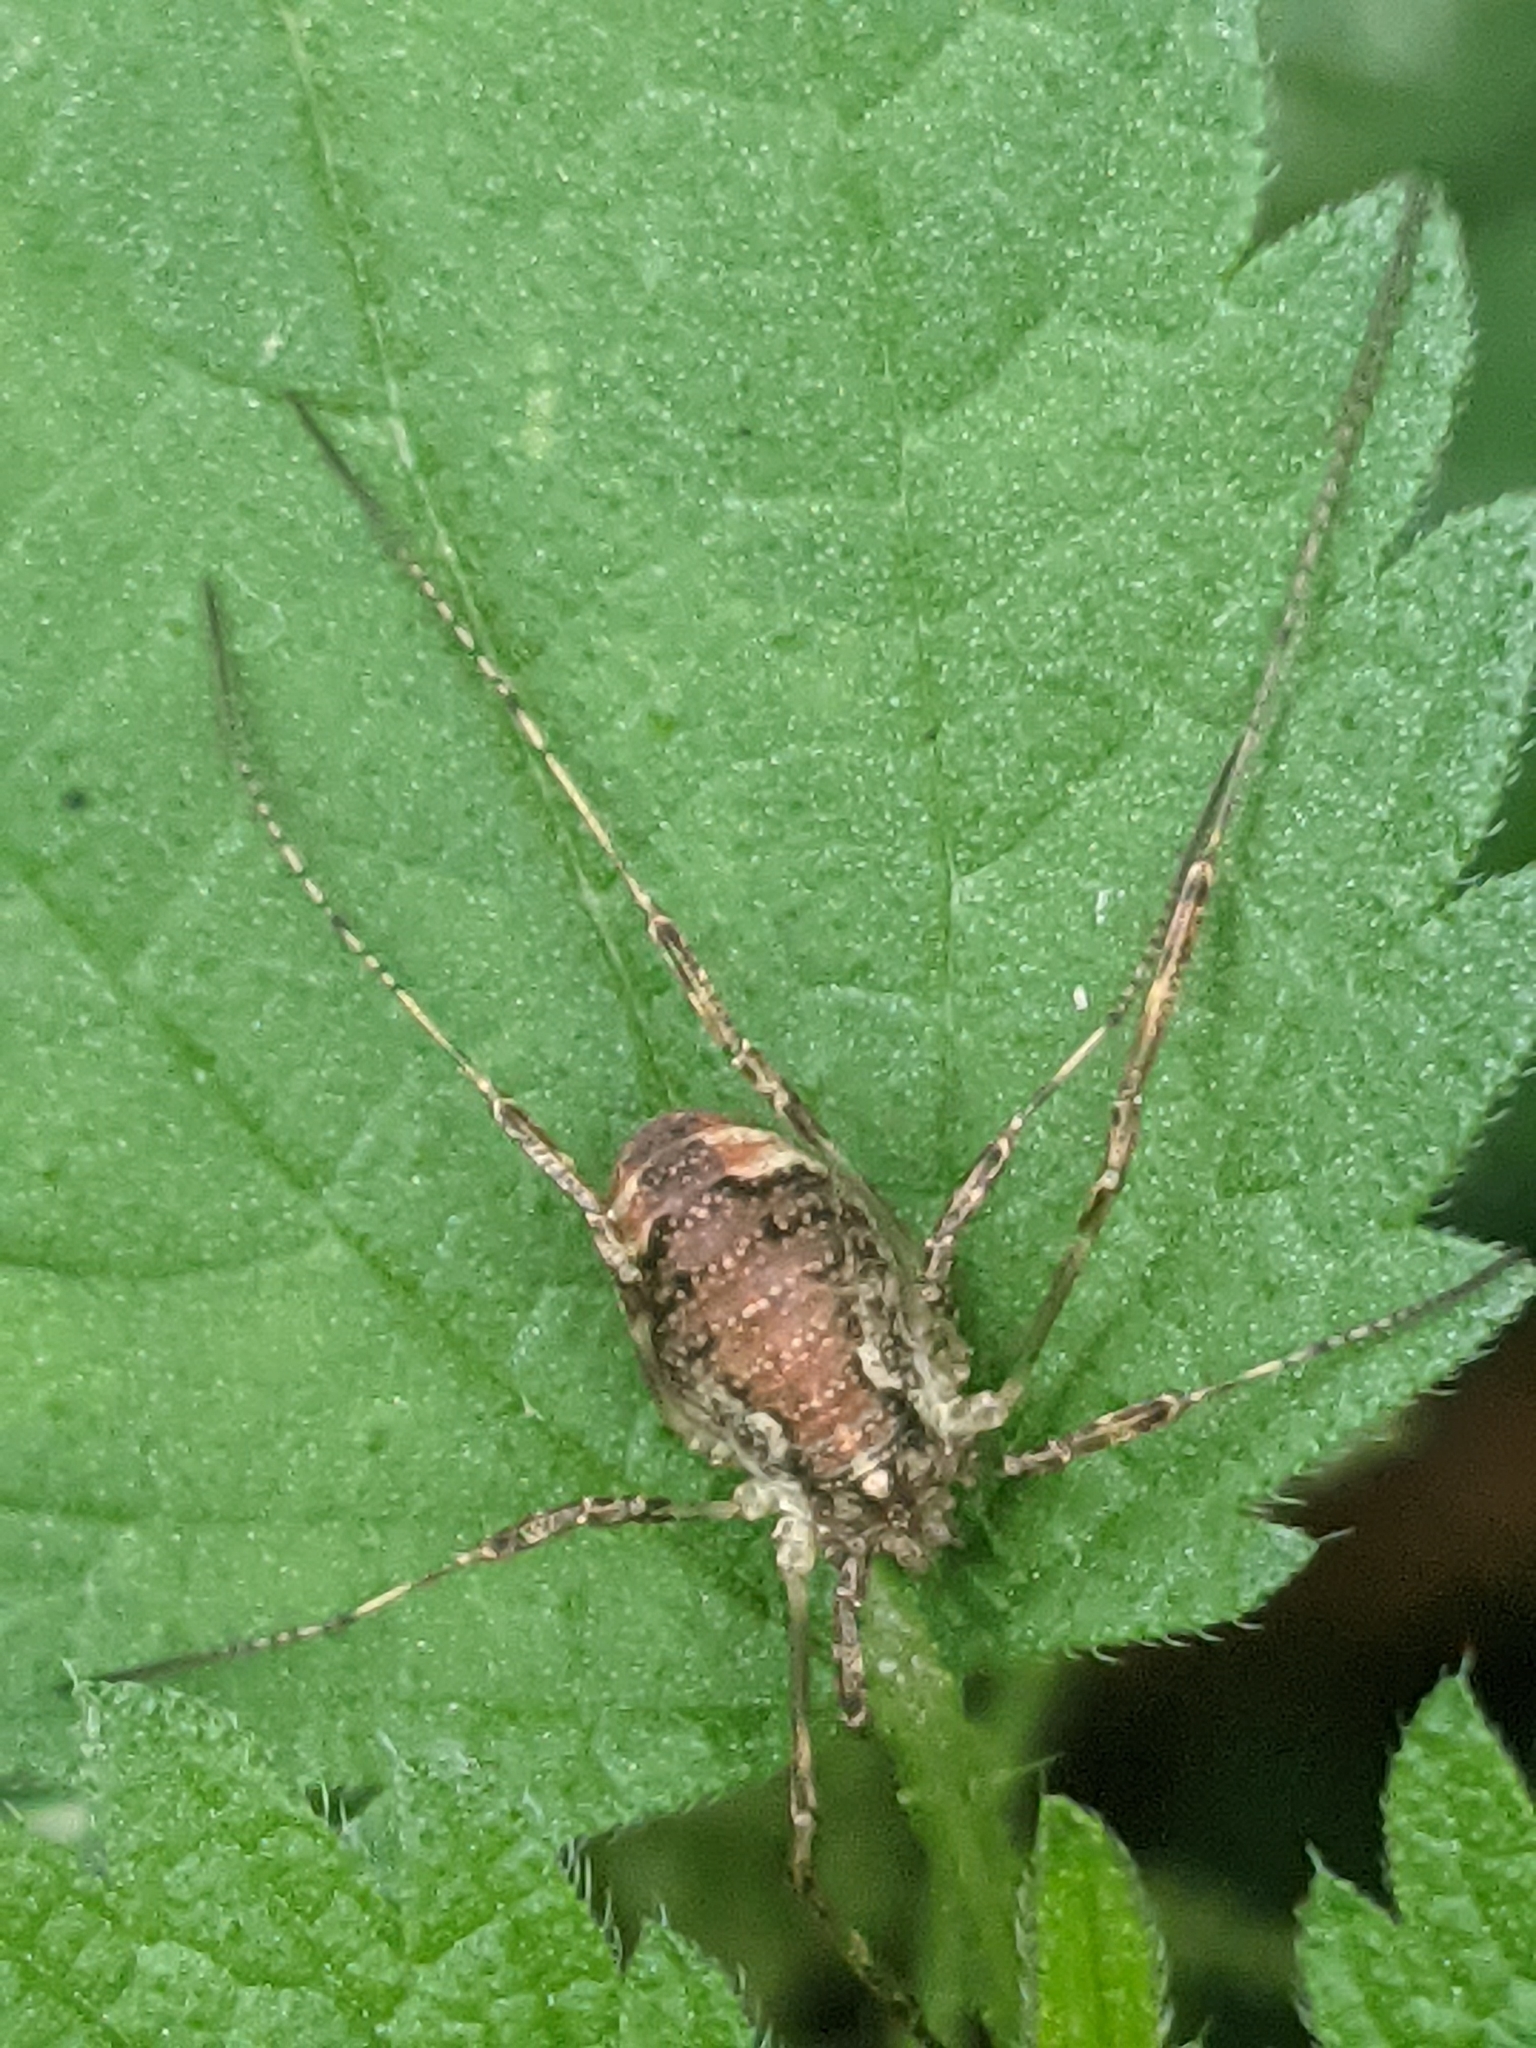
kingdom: Animalia
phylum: Arthropoda
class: Arachnida
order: Opiliones
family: Phalangiidae
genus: Paroligolophus
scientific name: Paroligolophus agrestis
